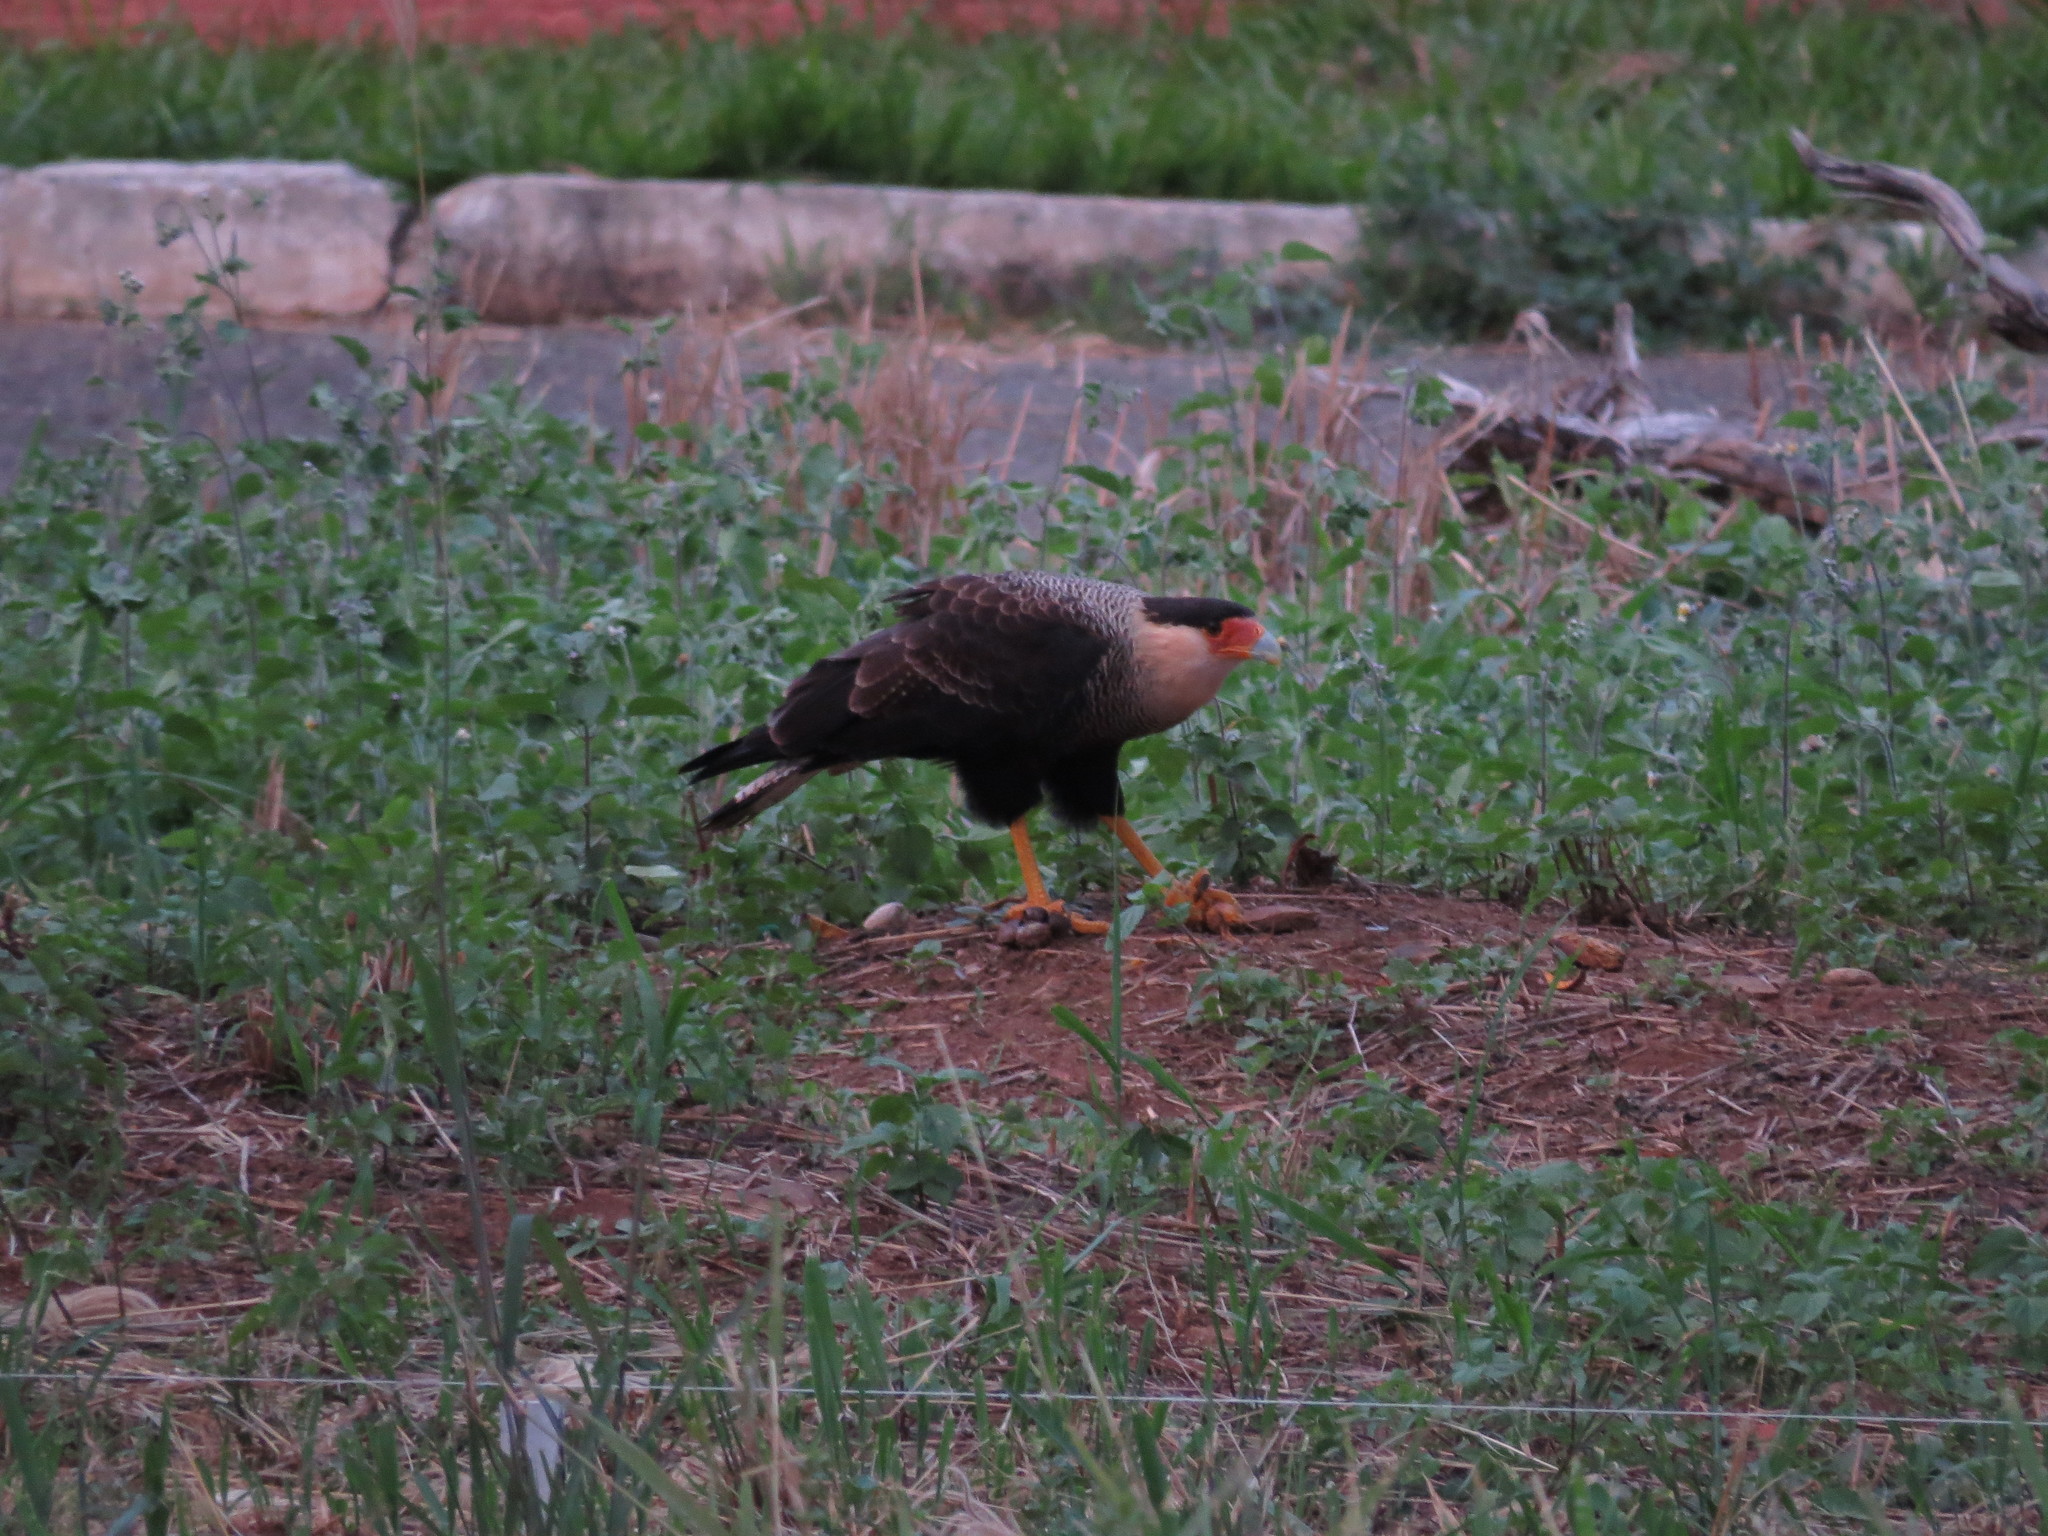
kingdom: Animalia
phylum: Chordata
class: Aves
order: Falconiformes
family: Falconidae
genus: Caracara
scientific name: Caracara plancus
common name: Southern caracara
